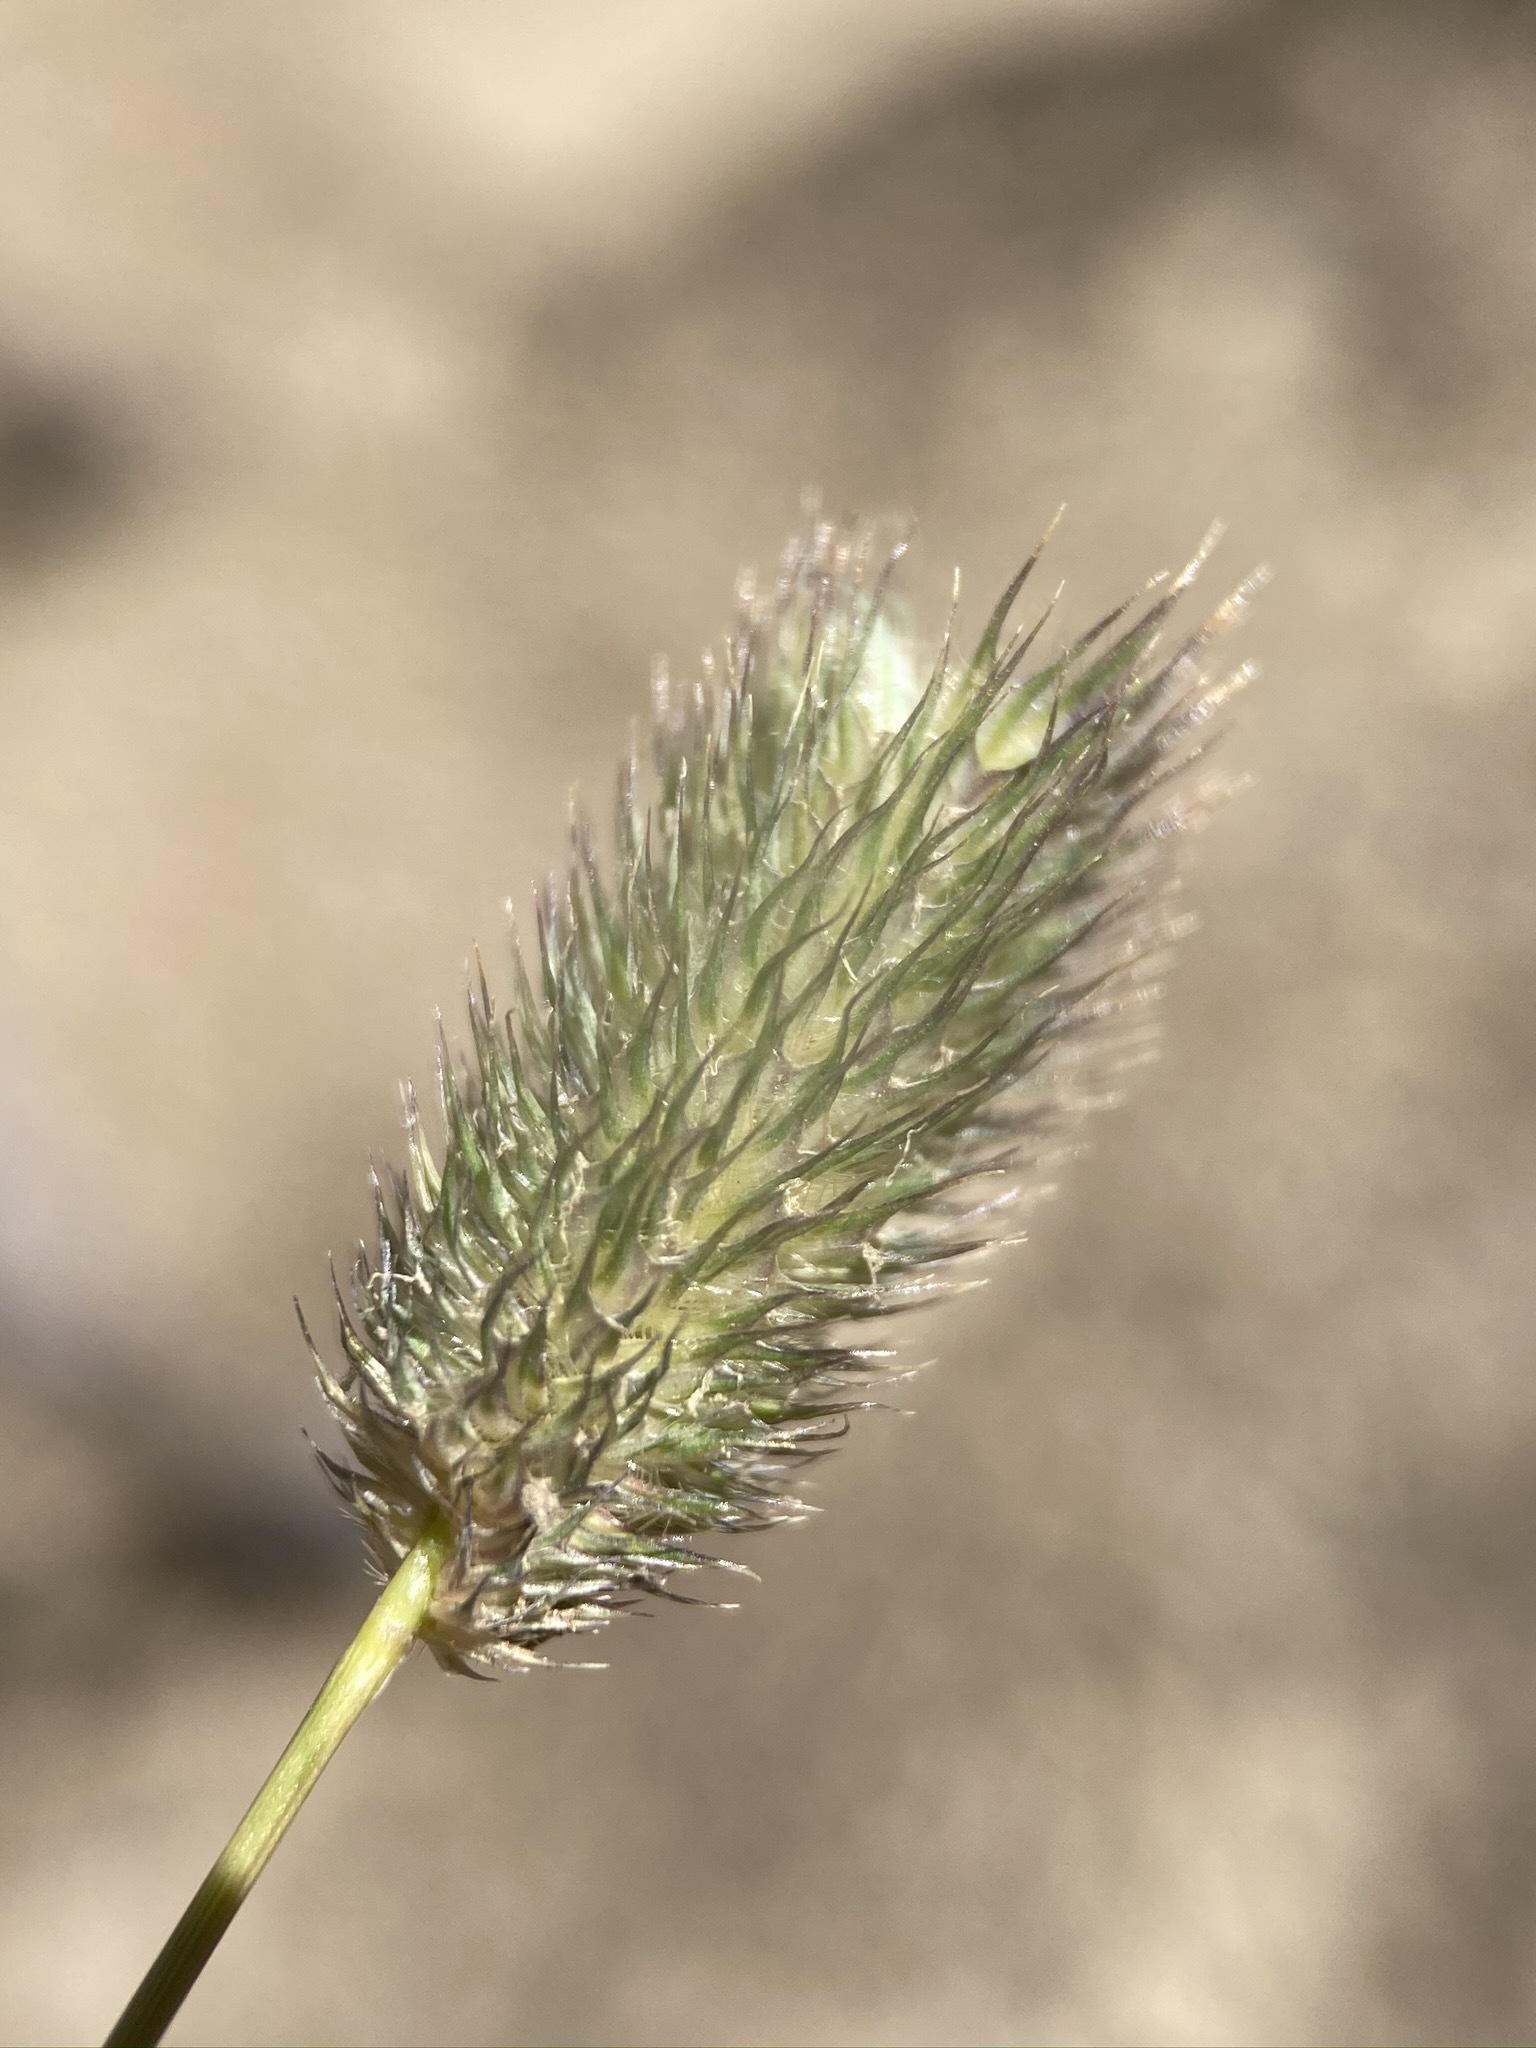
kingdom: Plantae
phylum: Tracheophyta
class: Liliopsida
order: Poales
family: Poaceae
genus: Phleum
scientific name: Phleum alpinum
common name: Alpine cat's-tail
